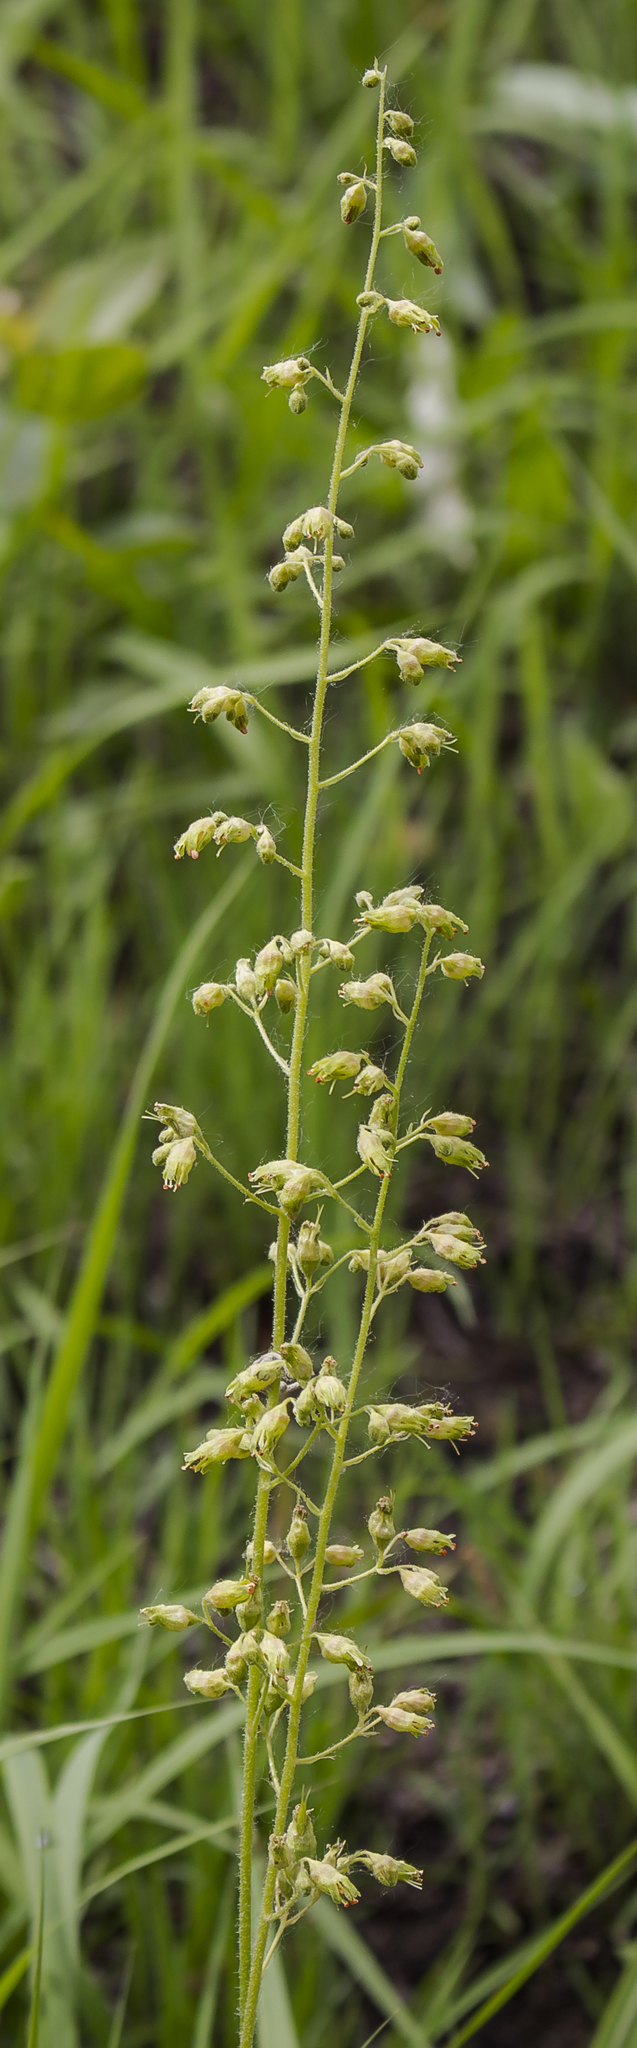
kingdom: Plantae
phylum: Tracheophyta
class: Magnoliopsida
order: Saxifragales
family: Saxifragaceae
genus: Heuchera
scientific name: Heuchera richardsonii
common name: Richardson's alumroot
